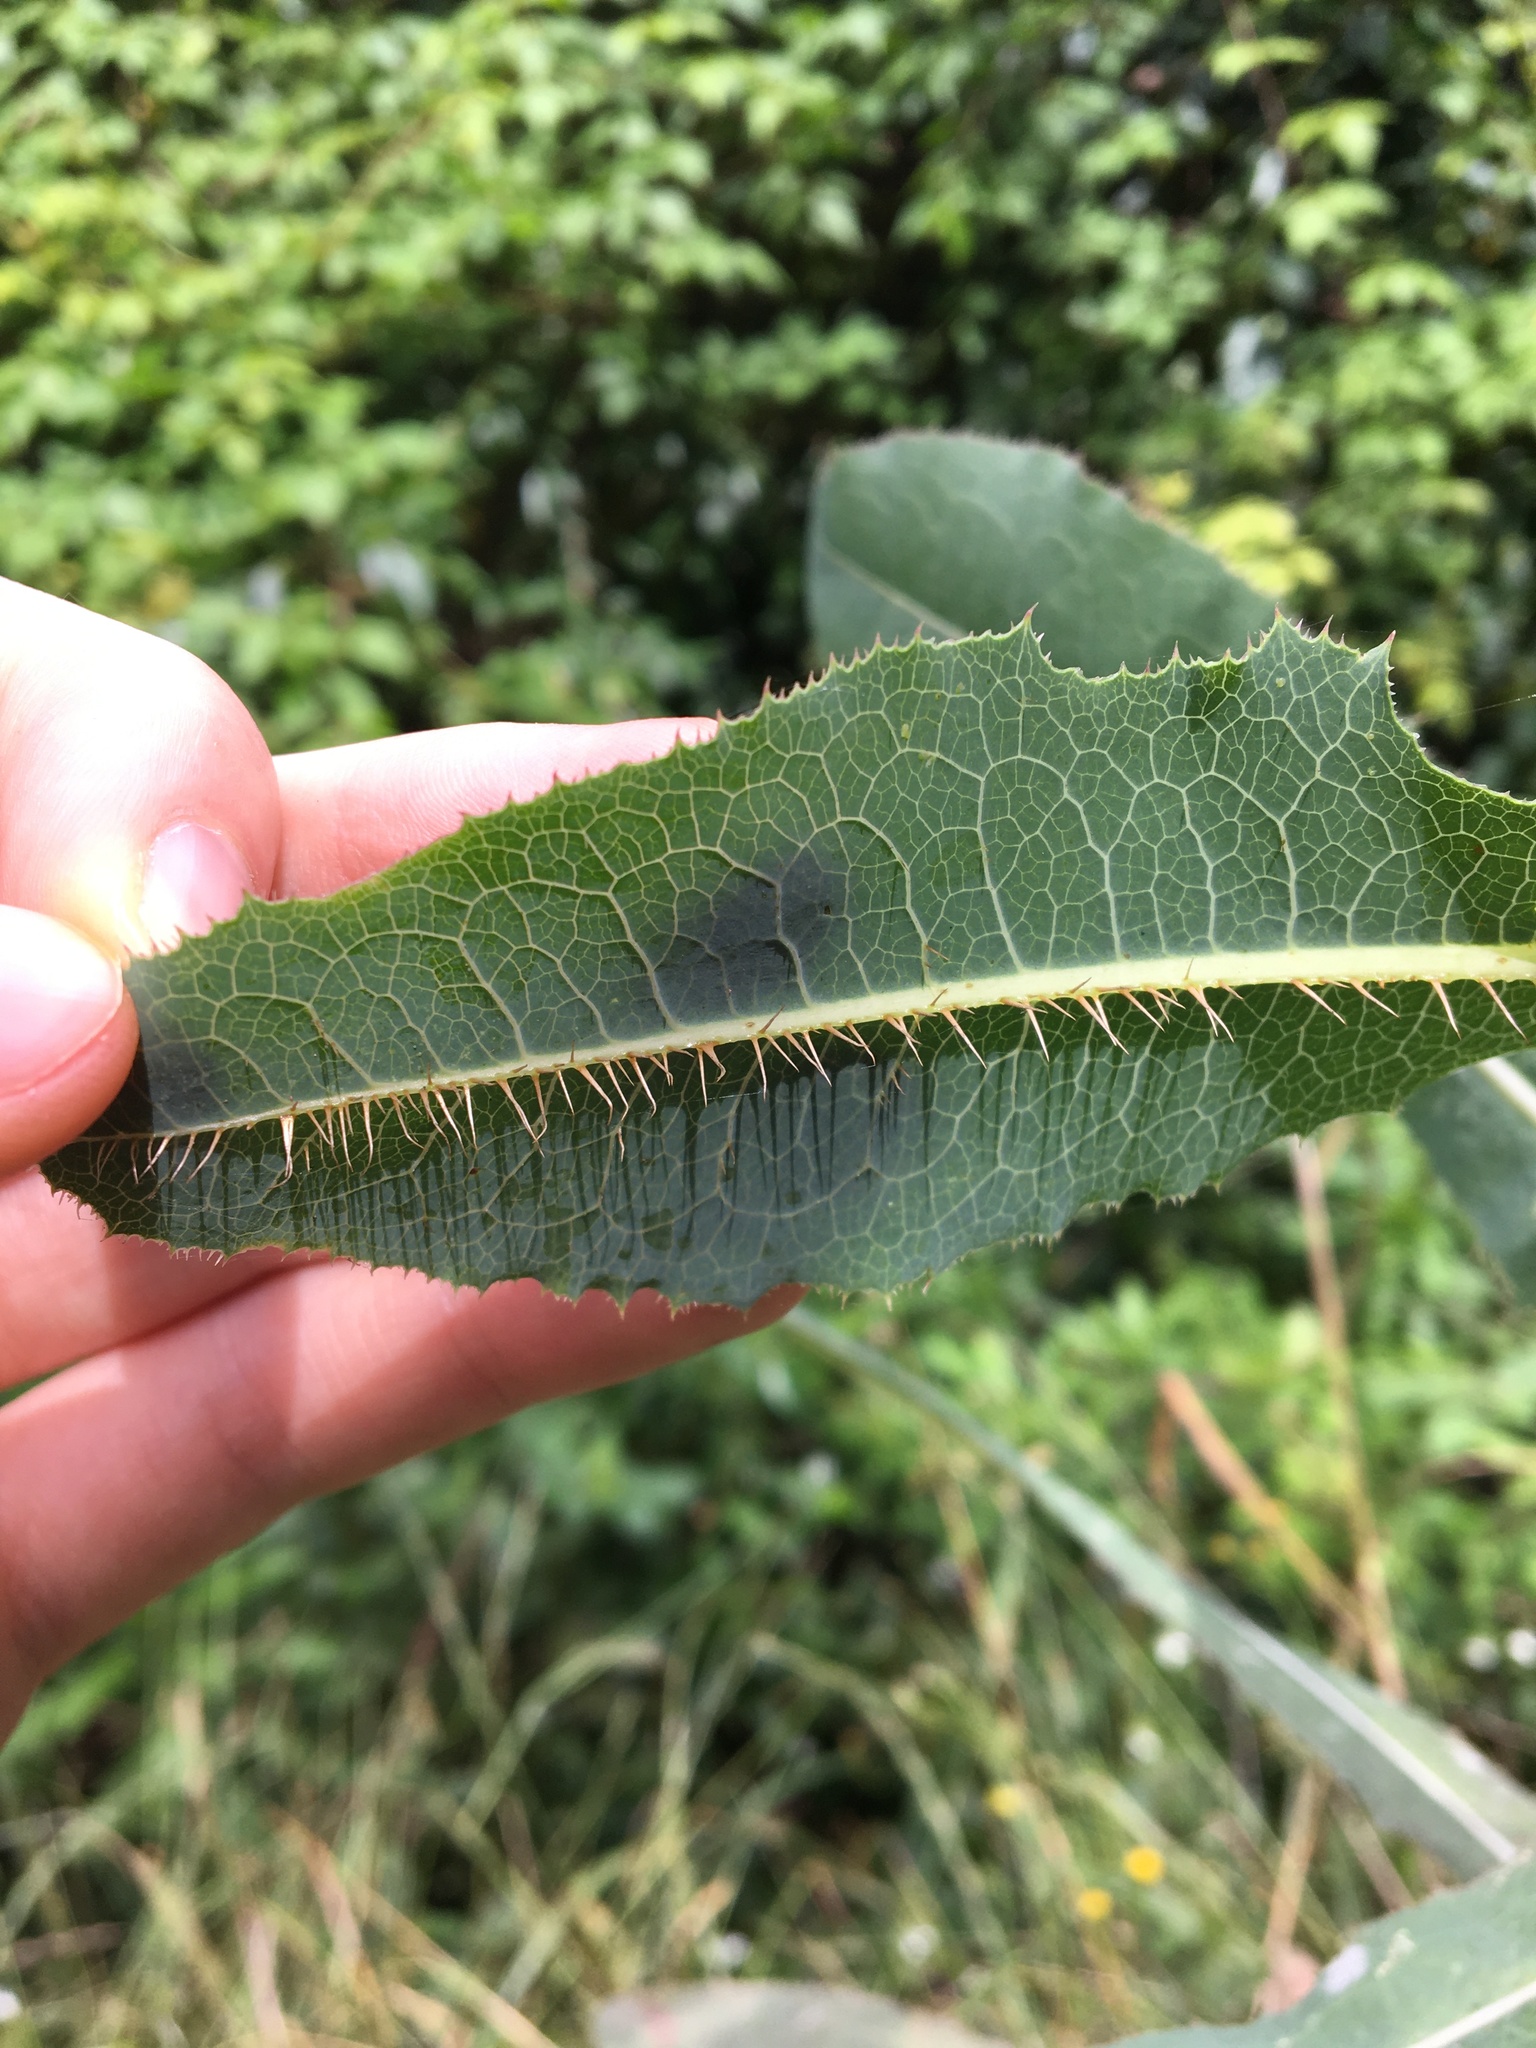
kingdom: Plantae
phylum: Tracheophyta
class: Magnoliopsida
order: Asterales
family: Asteraceae
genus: Lactuca
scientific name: Lactuca serriola
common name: Prickly lettuce
